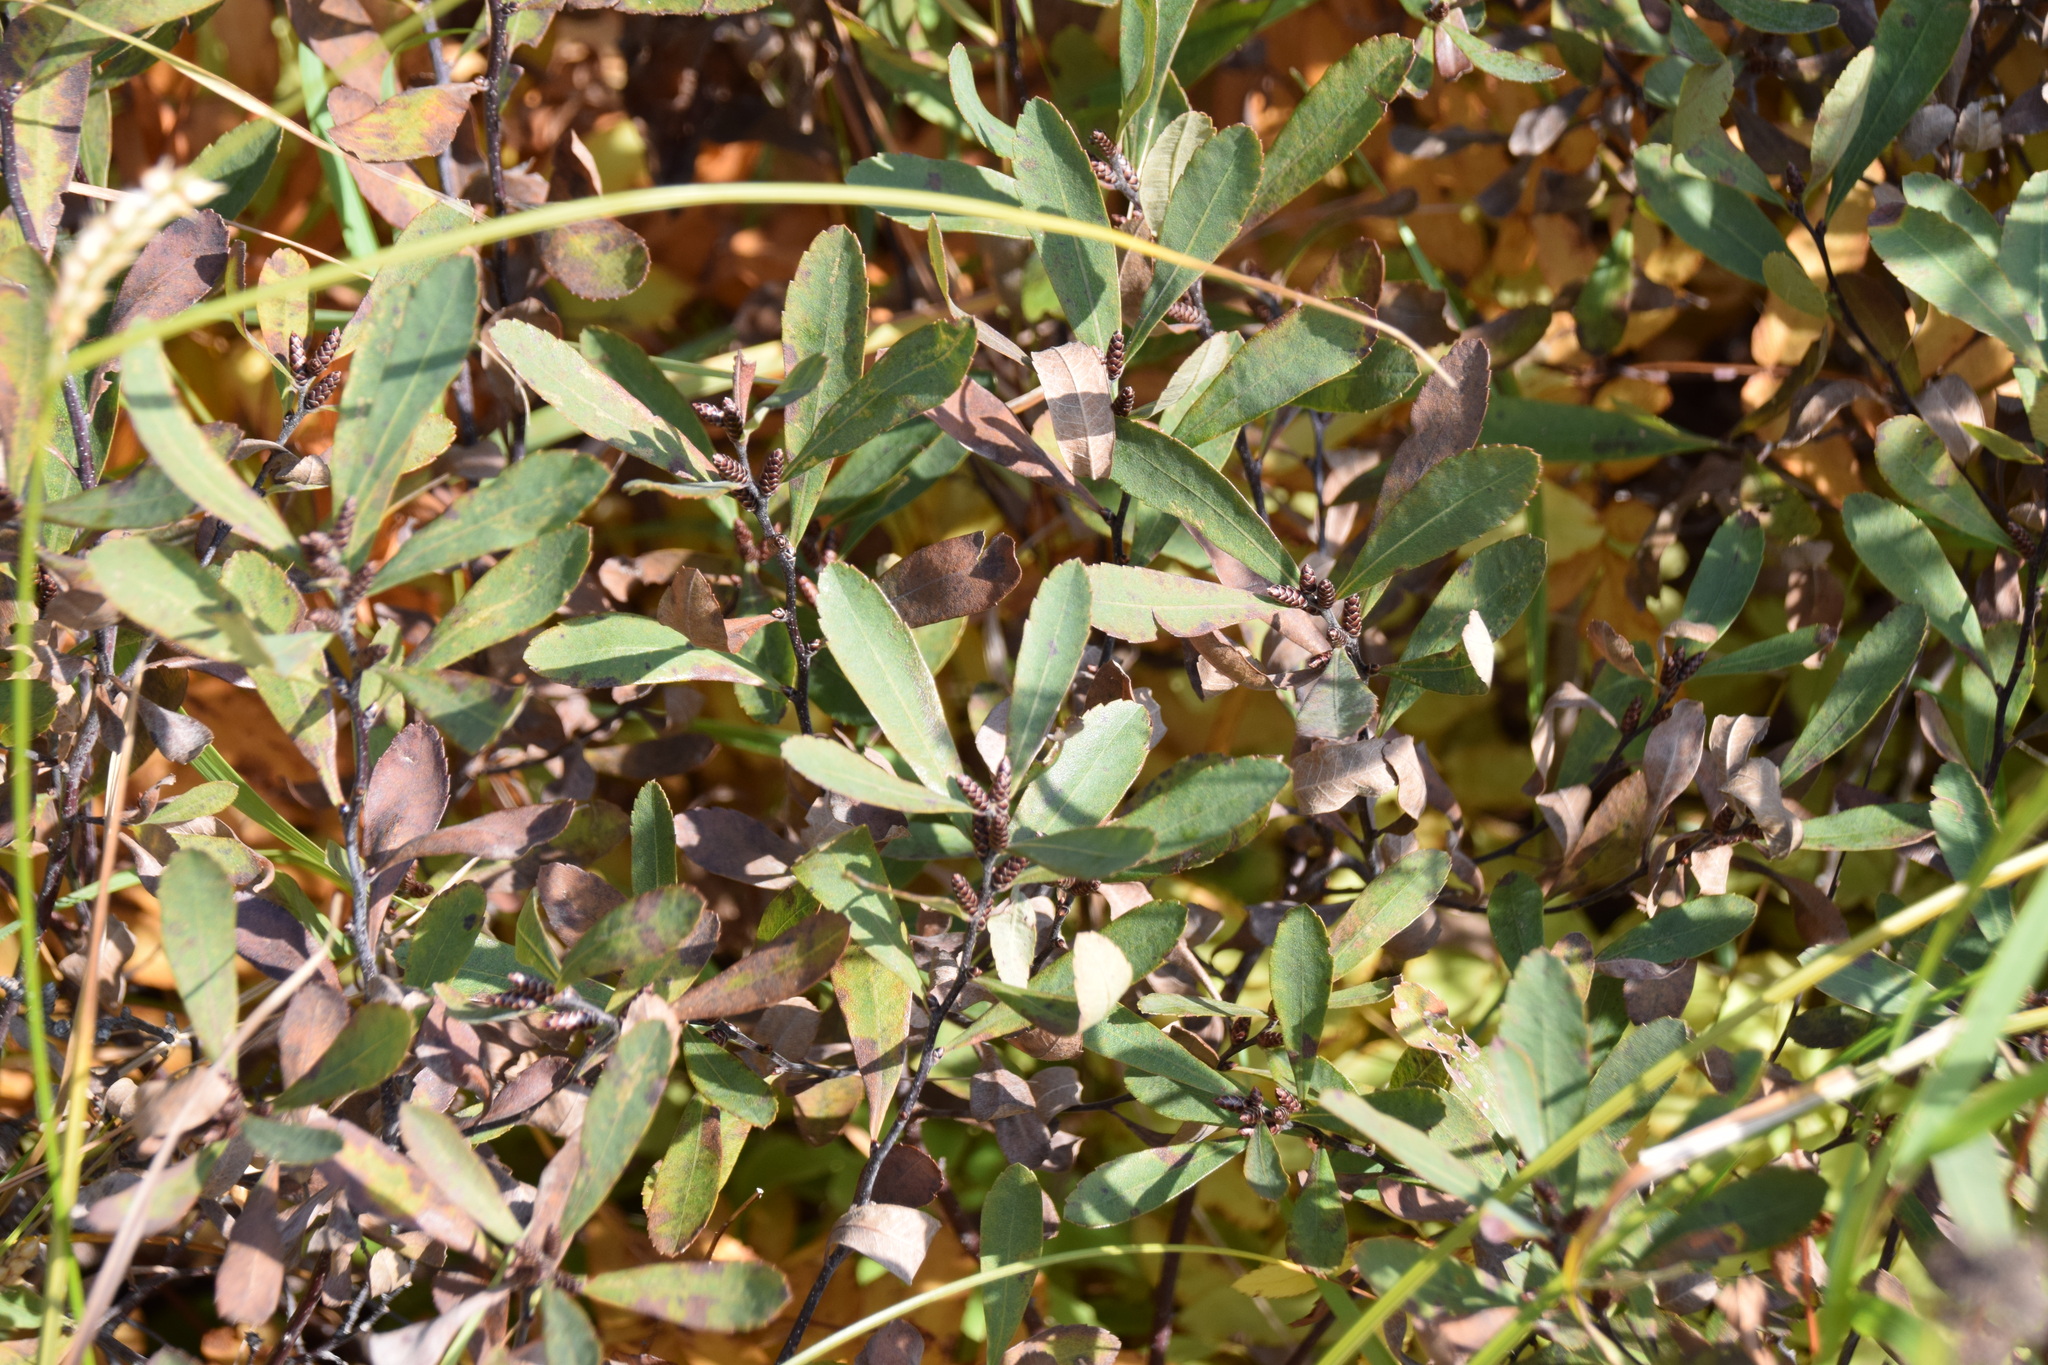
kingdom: Plantae
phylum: Tracheophyta
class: Magnoliopsida
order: Fagales
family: Myricaceae
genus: Myrica
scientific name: Myrica gale
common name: Sweet gale
